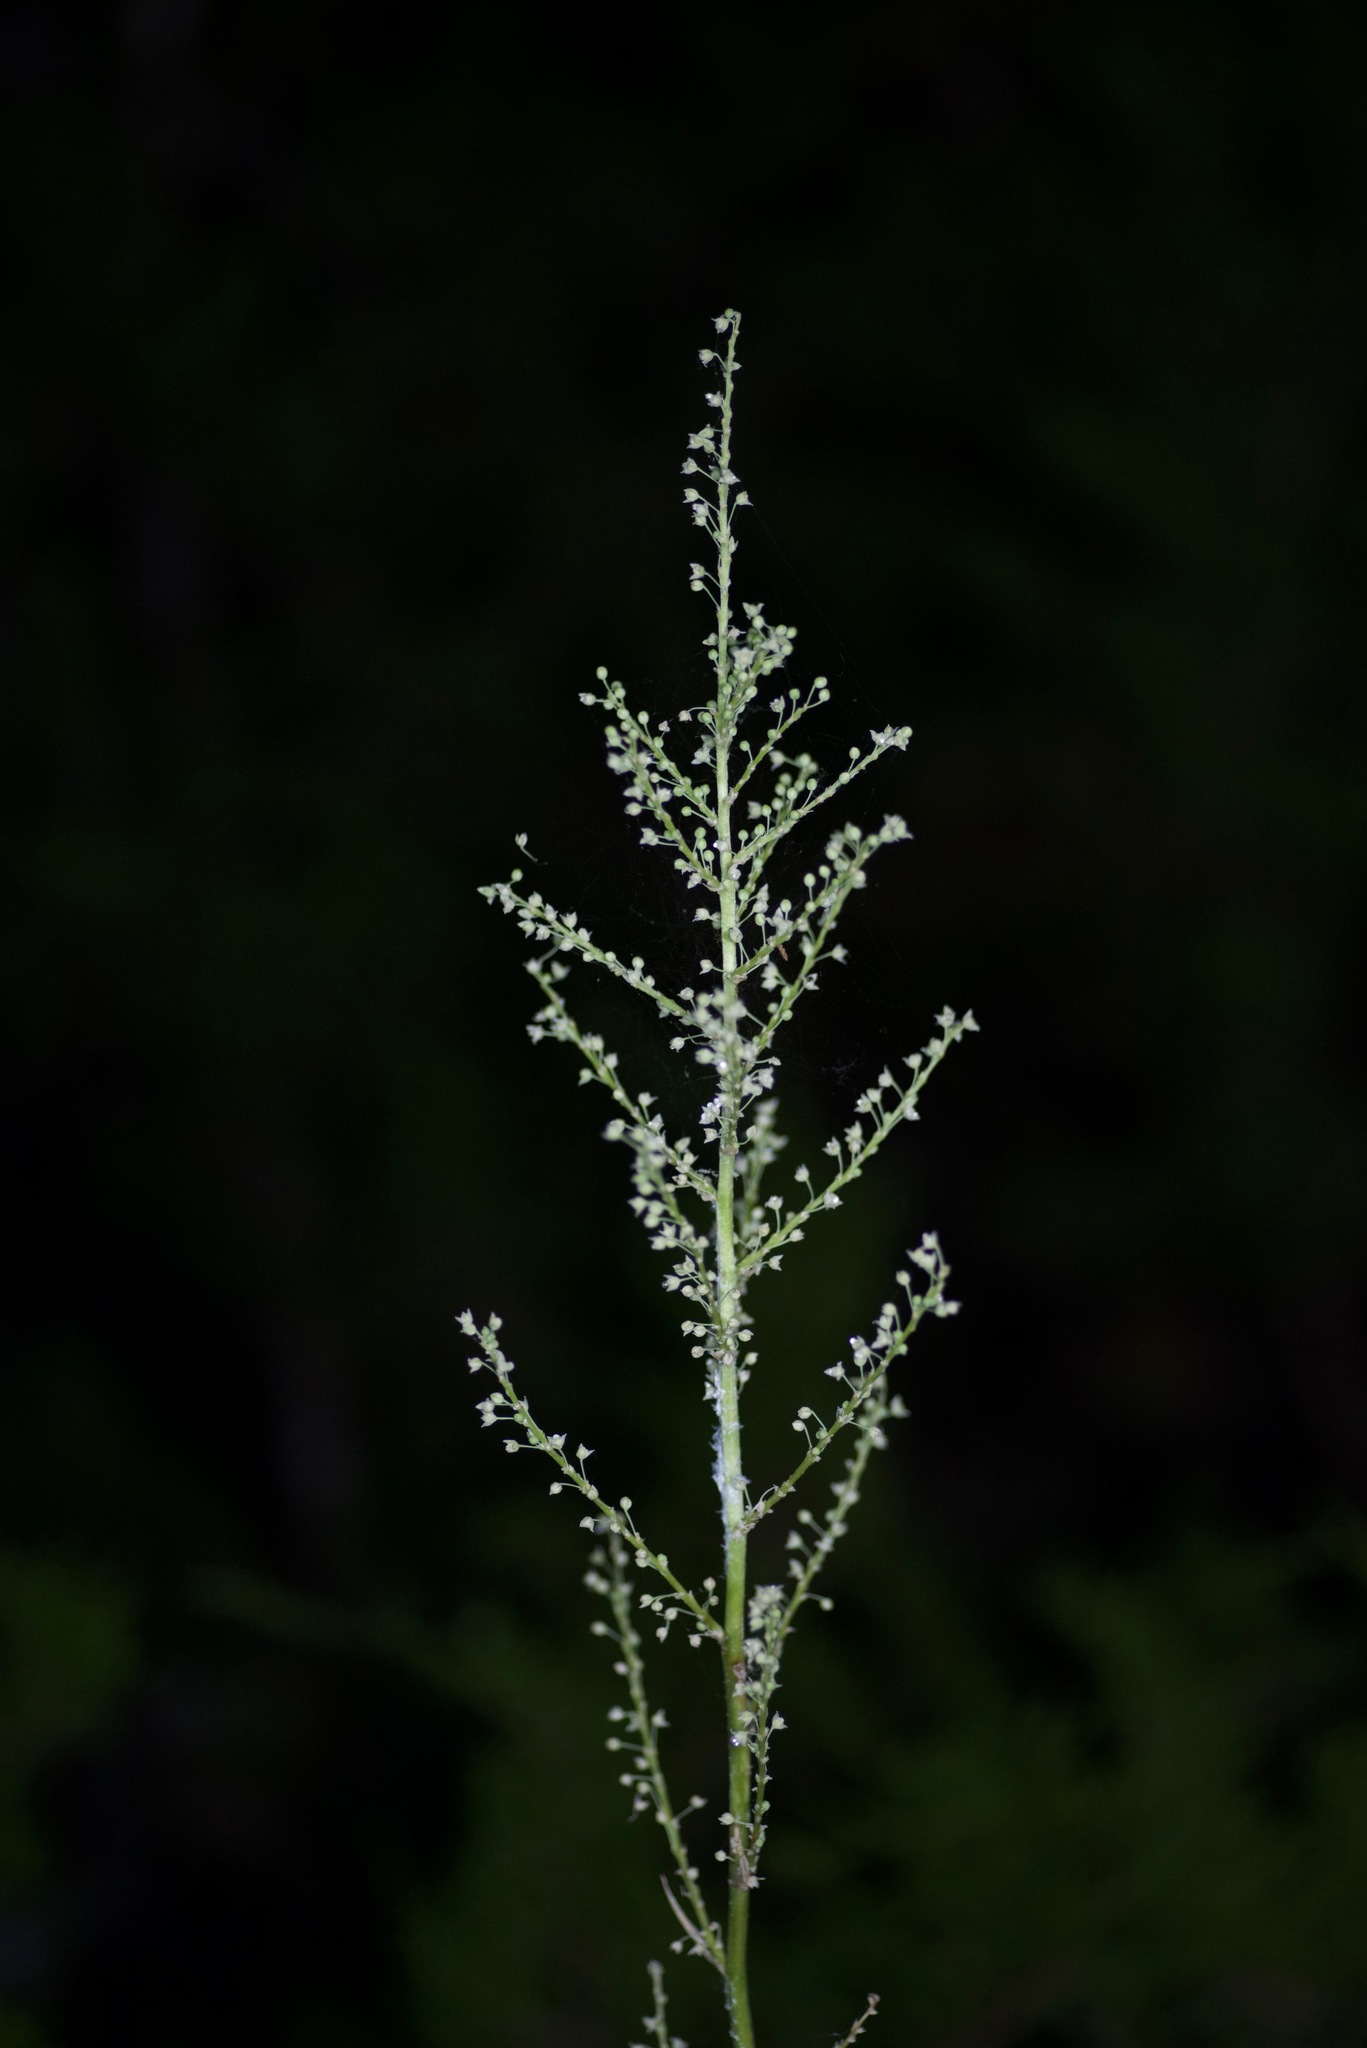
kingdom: Plantae
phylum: Tracheophyta
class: Liliopsida
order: Asparagales
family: Asparagaceae
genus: Nolina
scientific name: Nolina lindheimeriana
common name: Lindheimer's bear-grass
